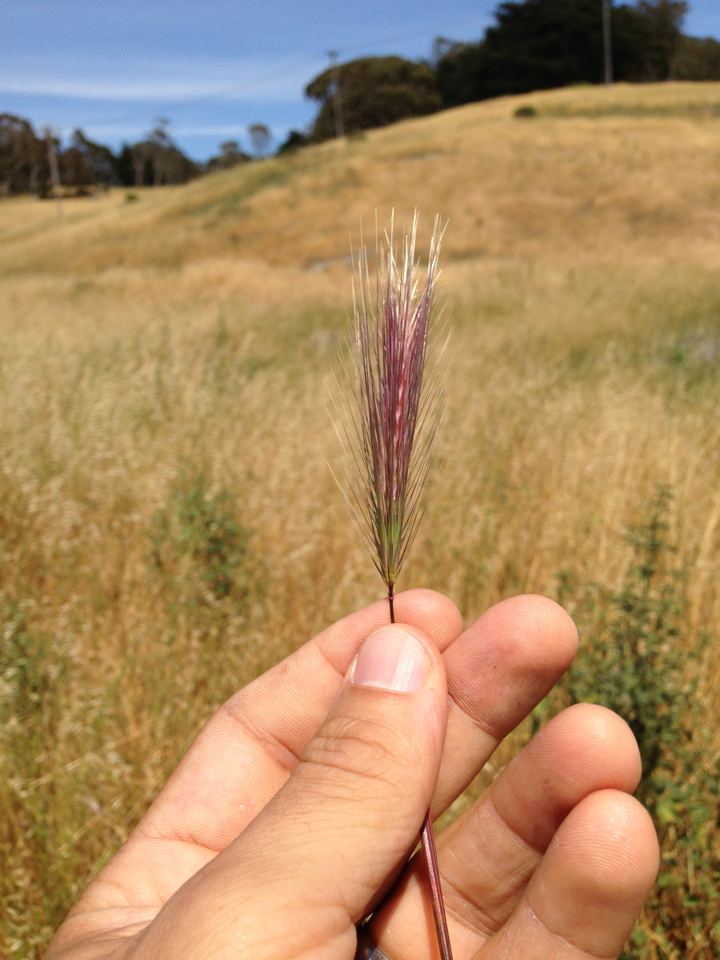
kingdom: Plantae
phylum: Tracheophyta
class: Liliopsida
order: Poales
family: Poaceae
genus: Hordeum
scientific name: Hordeum
